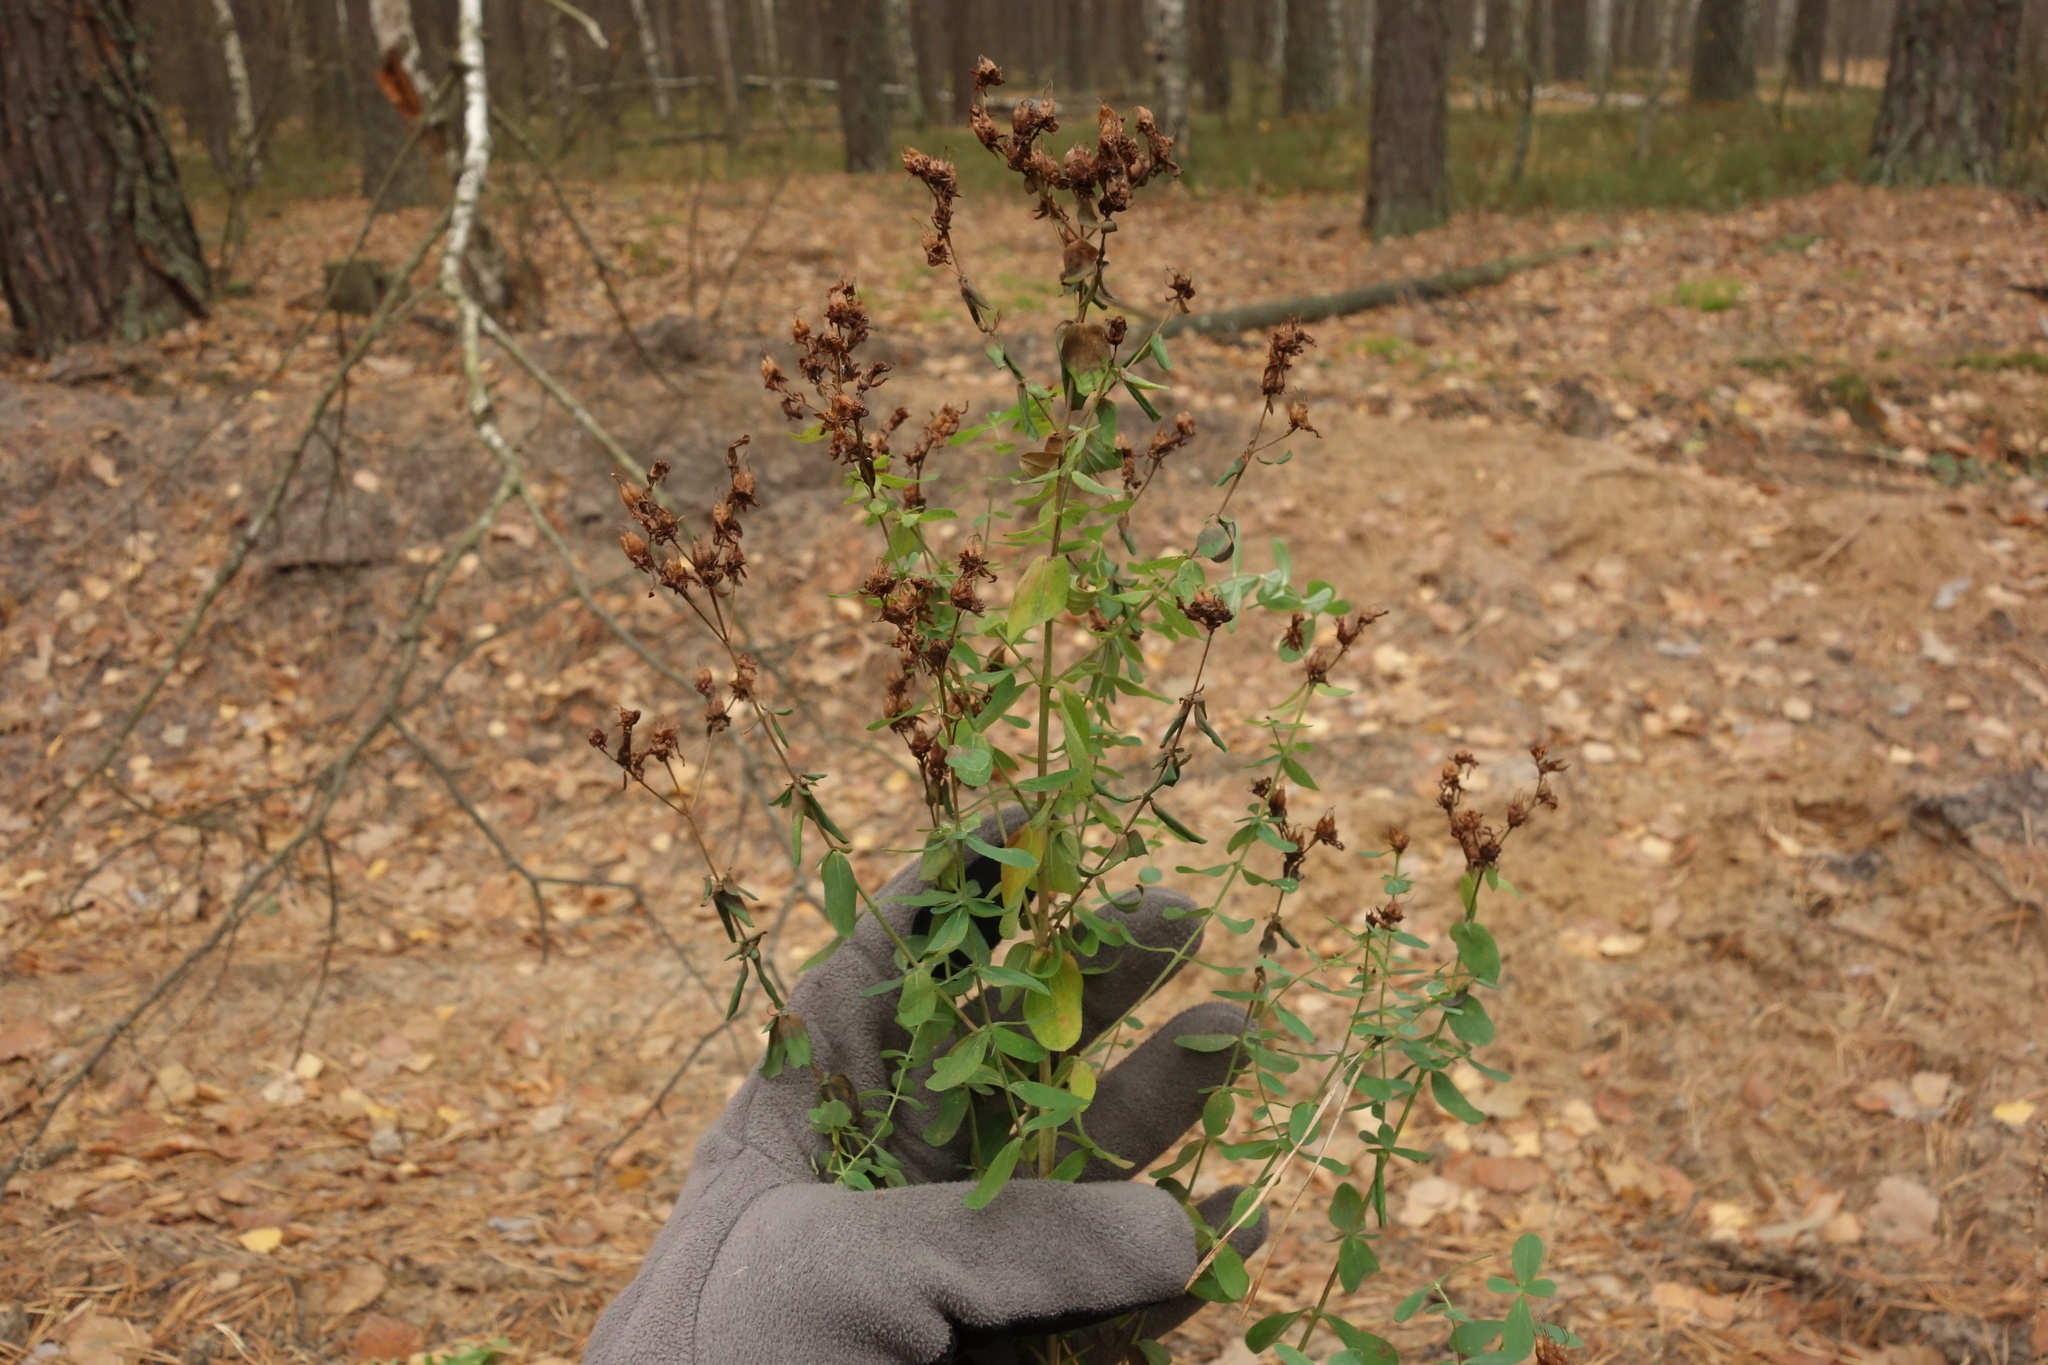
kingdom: Plantae
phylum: Tracheophyta
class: Magnoliopsida
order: Malpighiales
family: Hypericaceae
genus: Hypericum
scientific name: Hypericum perforatum
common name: Common st. johnswort
